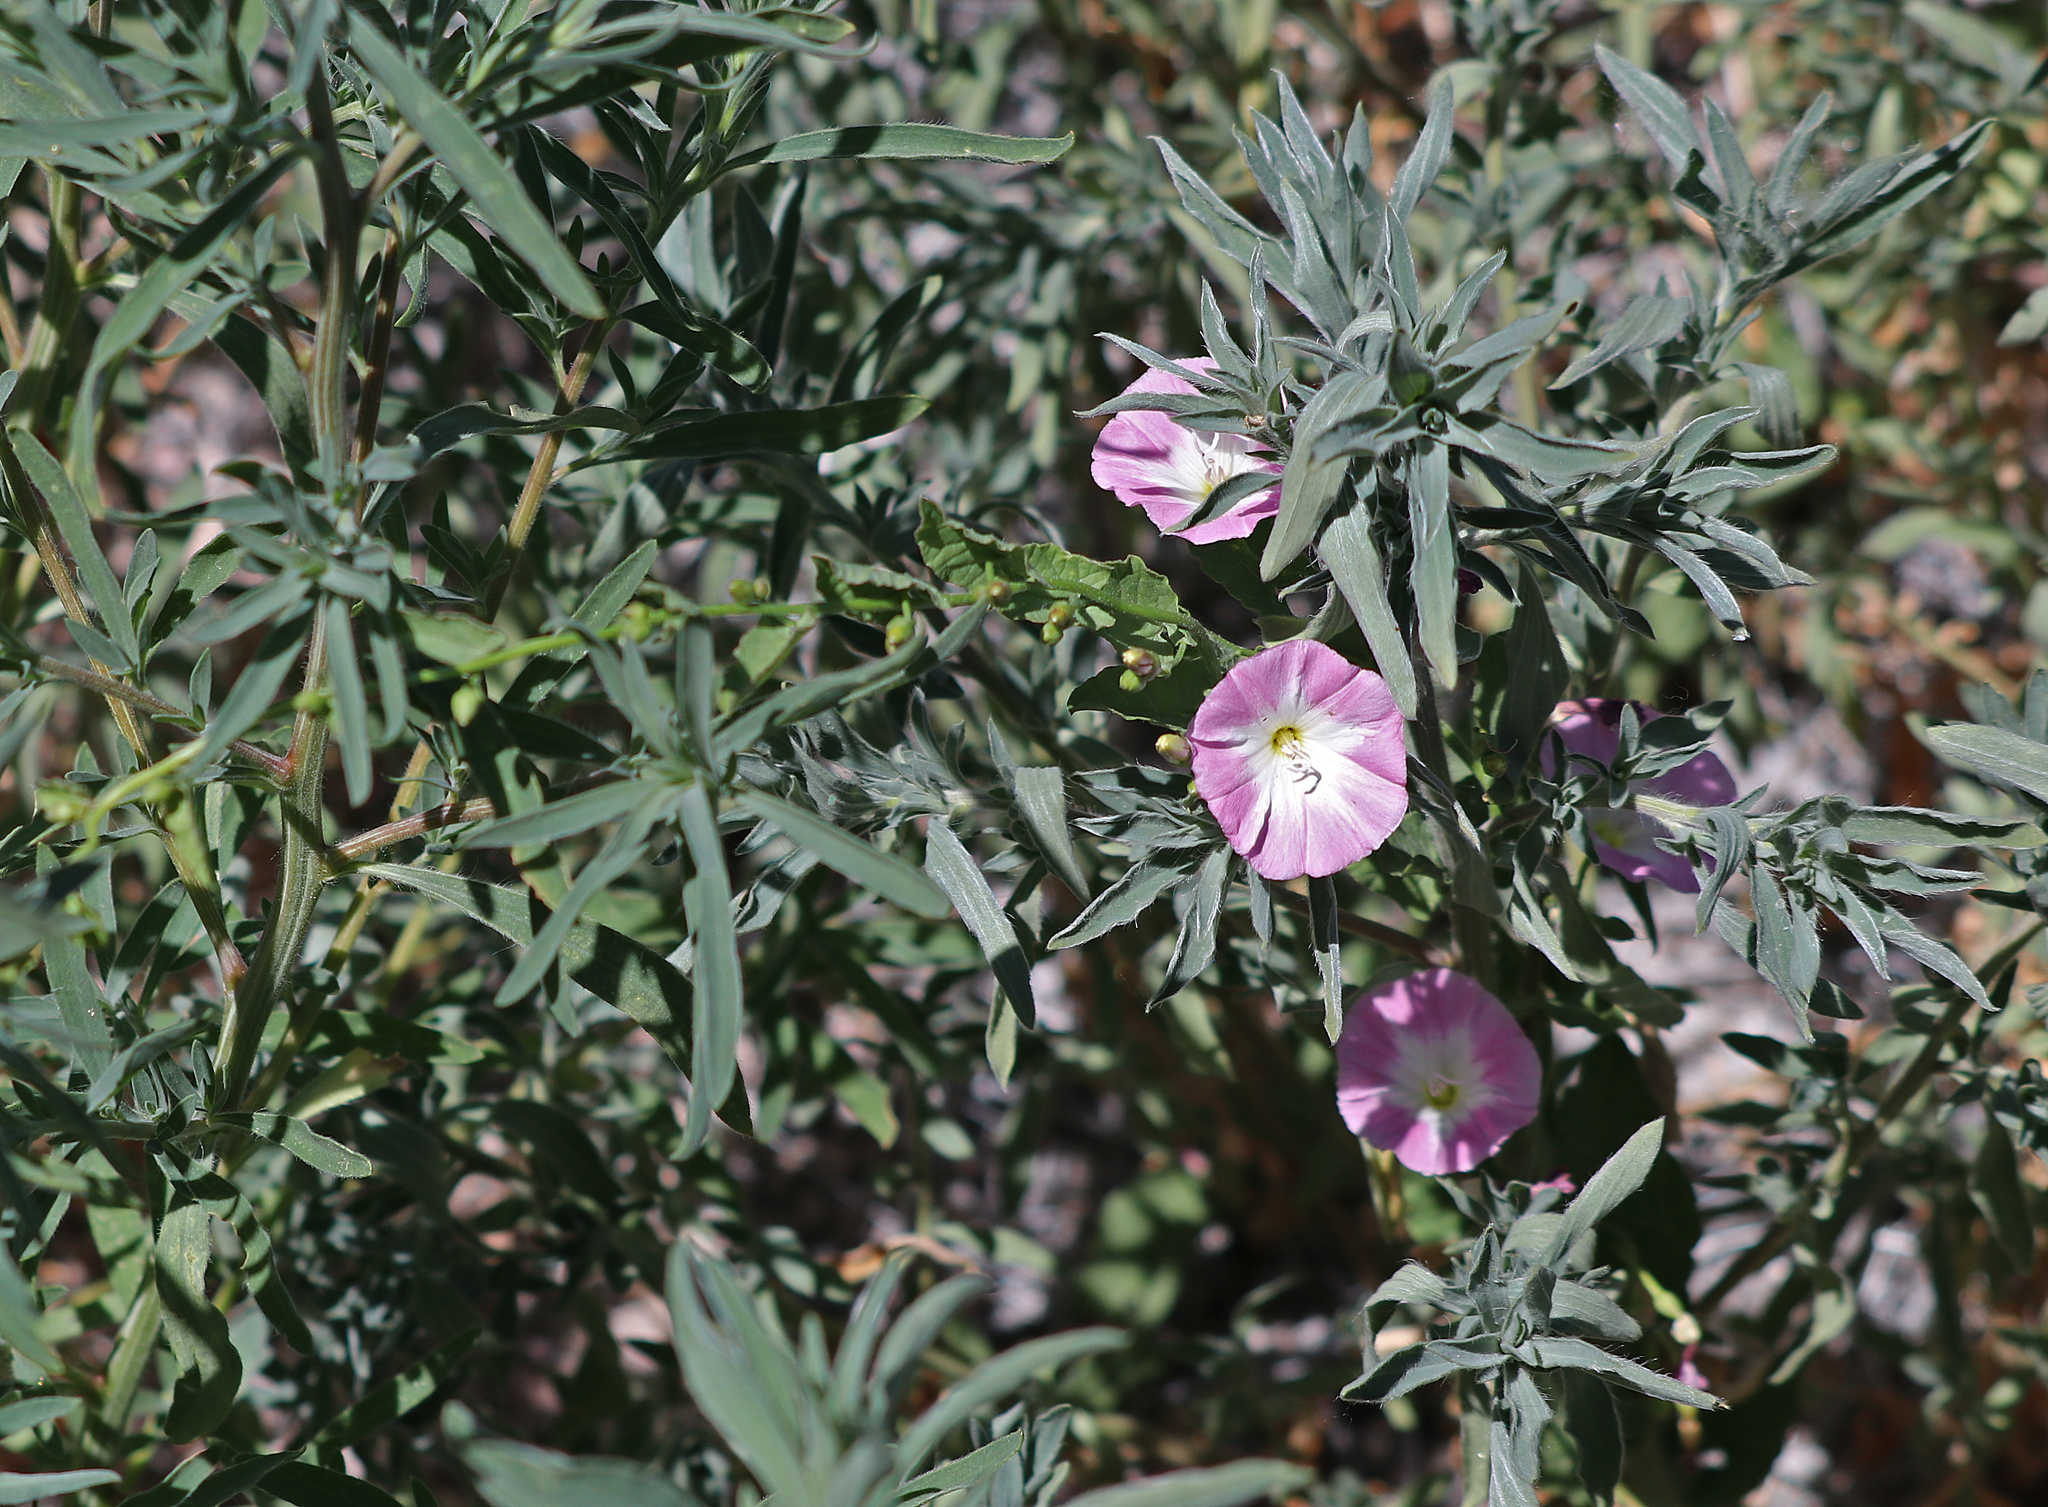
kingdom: Plantae
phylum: Tracheophyta
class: Magnoliopsida
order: Solanales
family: Convolvulaceae
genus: Convolvulus
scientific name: Convolvulus arvensis
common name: Field bindweed
